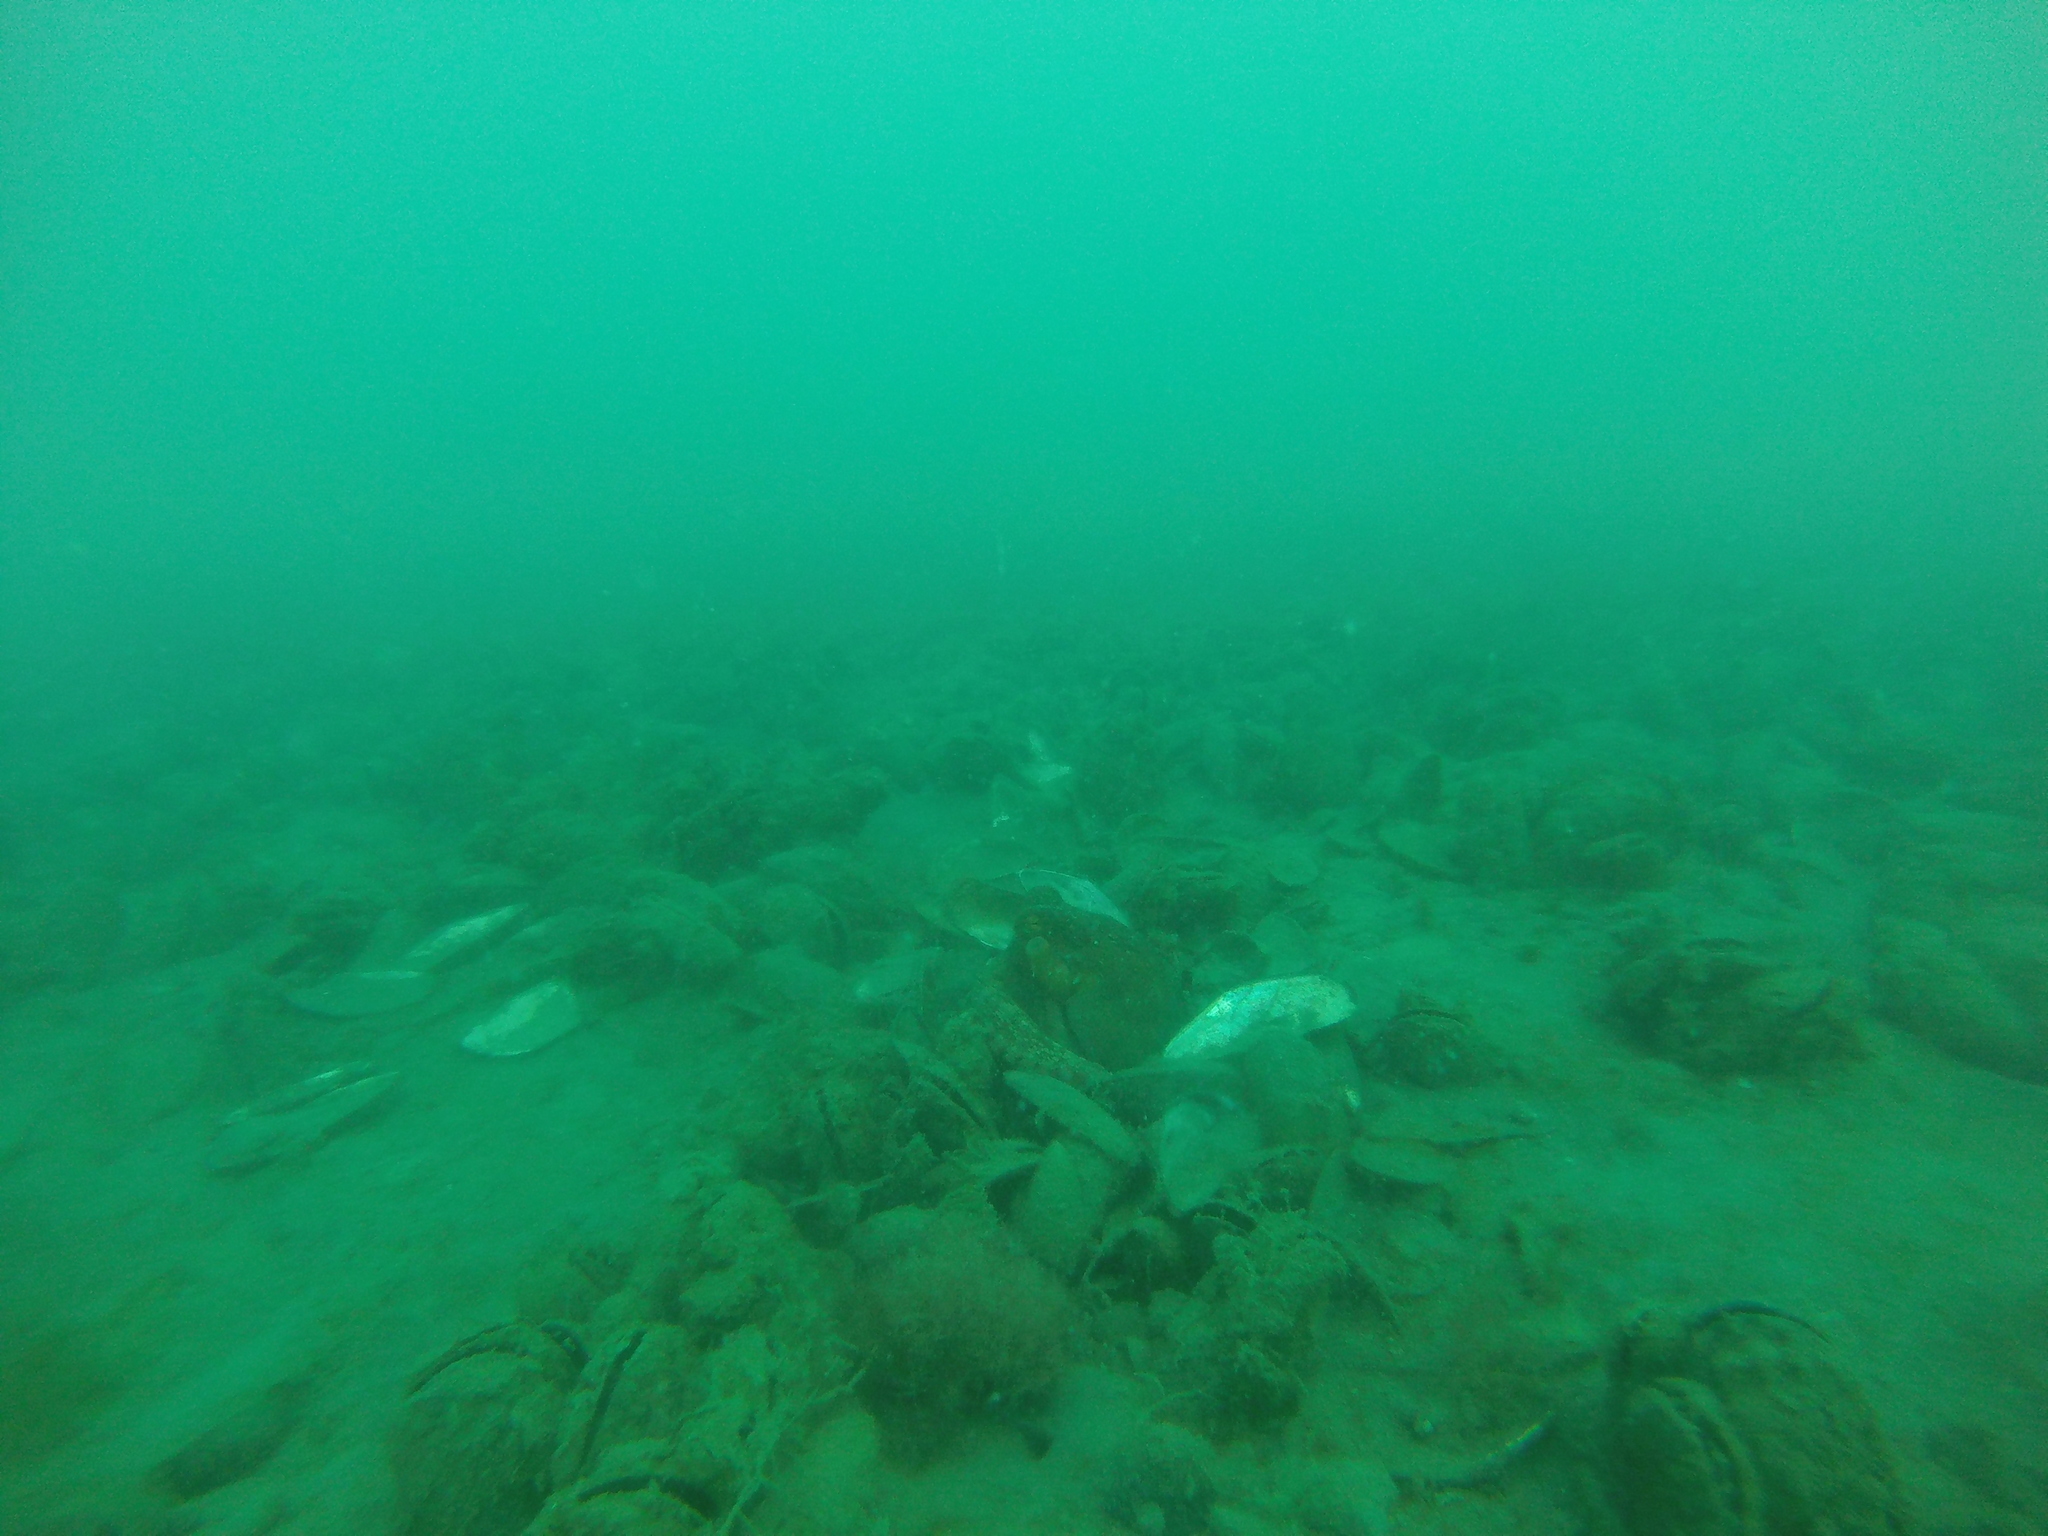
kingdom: Animalia
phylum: Mollusca
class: Cephalopoda
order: Octopoda
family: Octopodidae
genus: Macroctopus
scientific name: Macroctopus maorum
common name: Maori octopus
